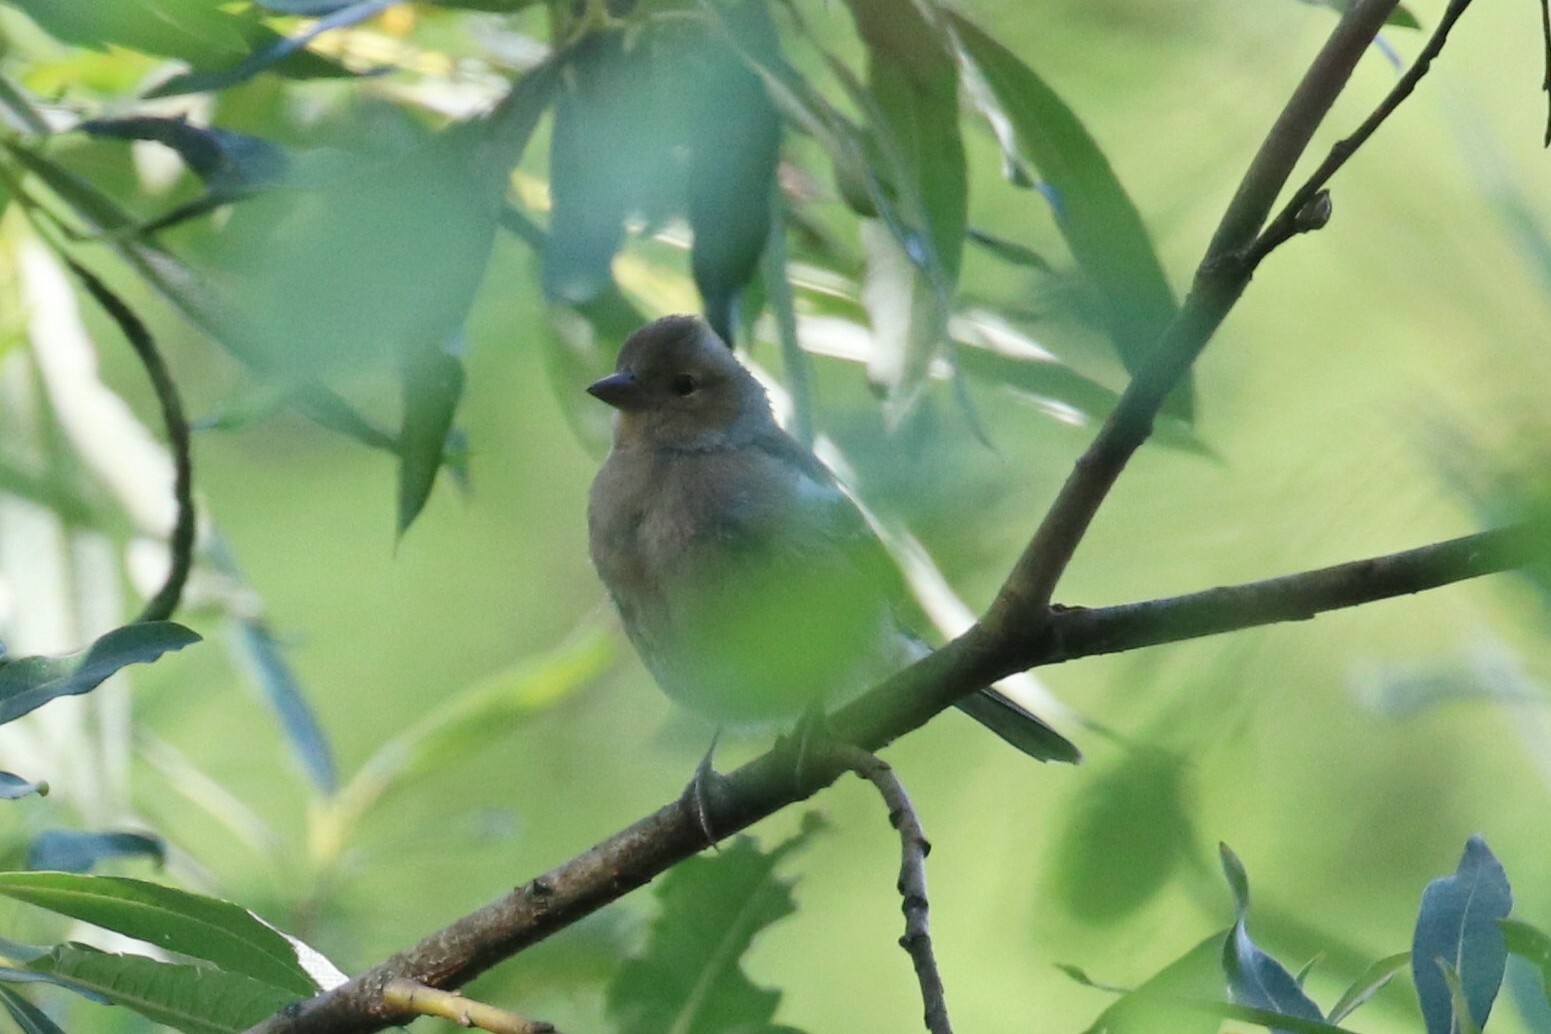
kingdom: Animalia
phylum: Chordata
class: Aves
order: Passeriformes
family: Fringillidae
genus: Fringilla
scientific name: Fringilla coelebs
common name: Common chaffinch
